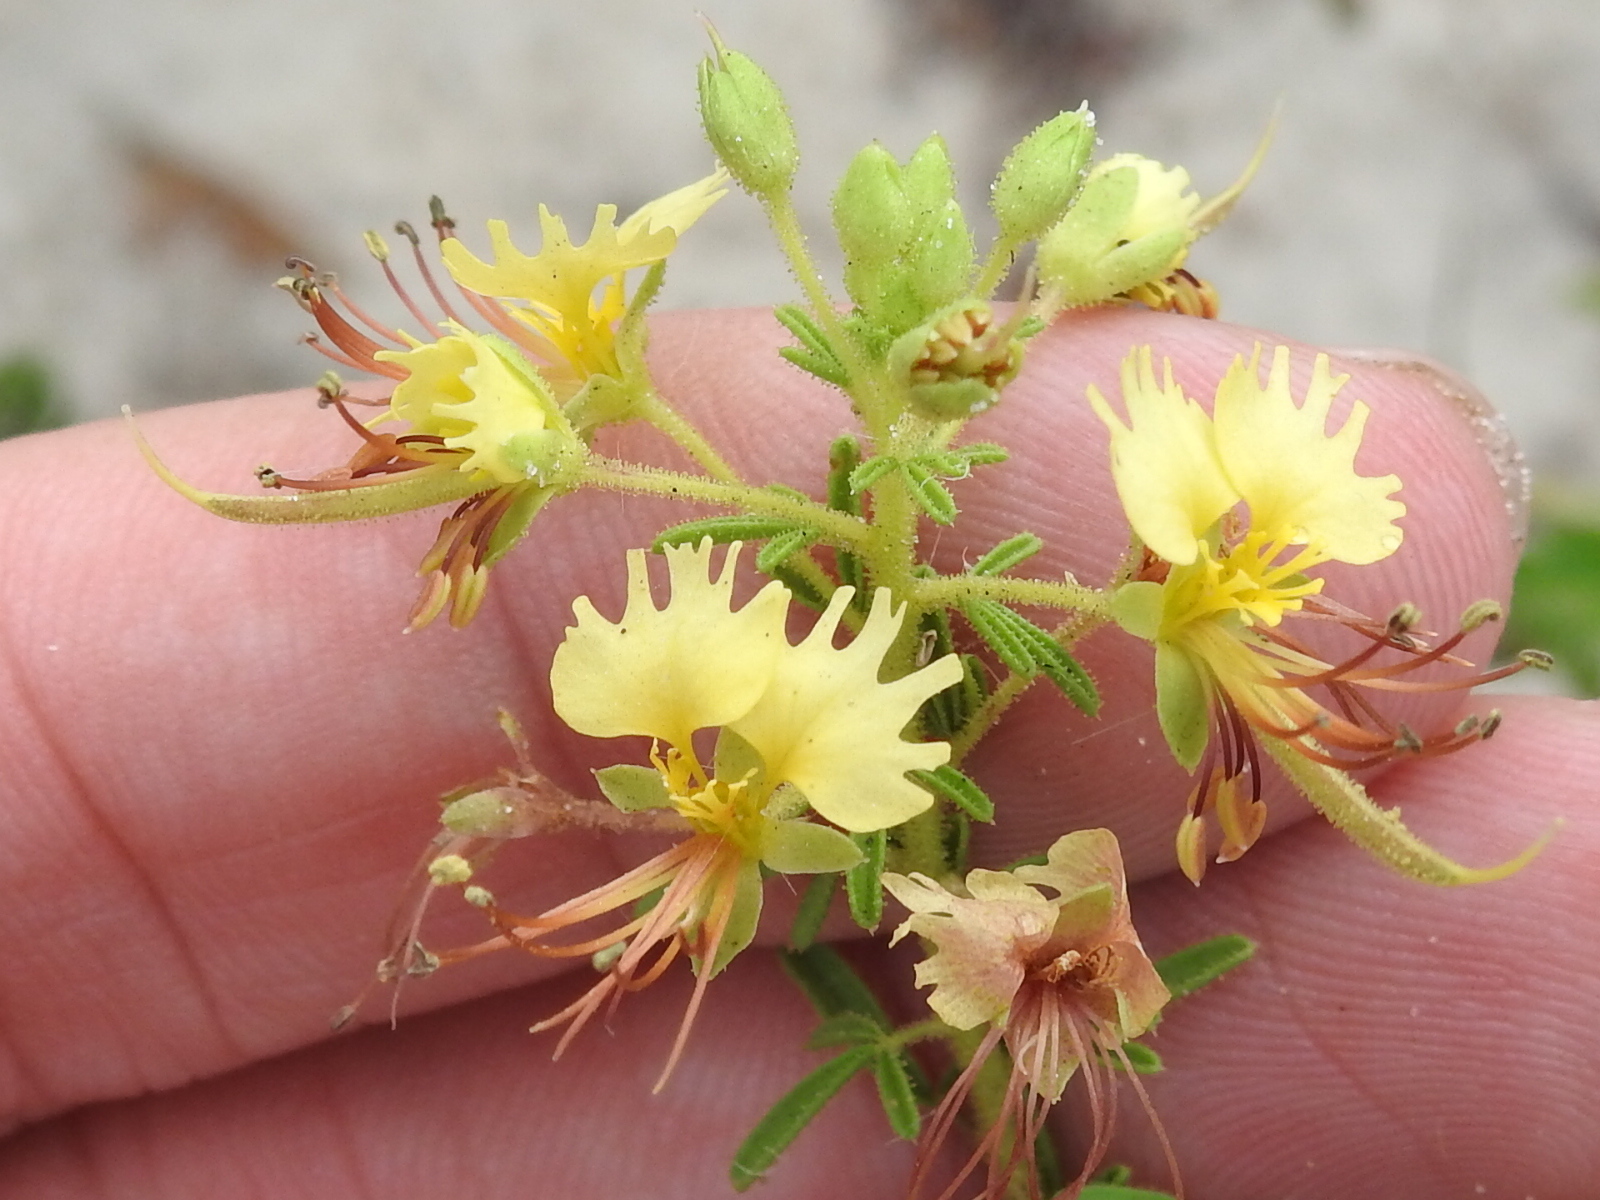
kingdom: Plantae
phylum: Tracheophyta
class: Magnoliopsida
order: Brassicales
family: Cleomaceae
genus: Polanisia
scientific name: Polanisia erosa
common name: Large clammyweed
